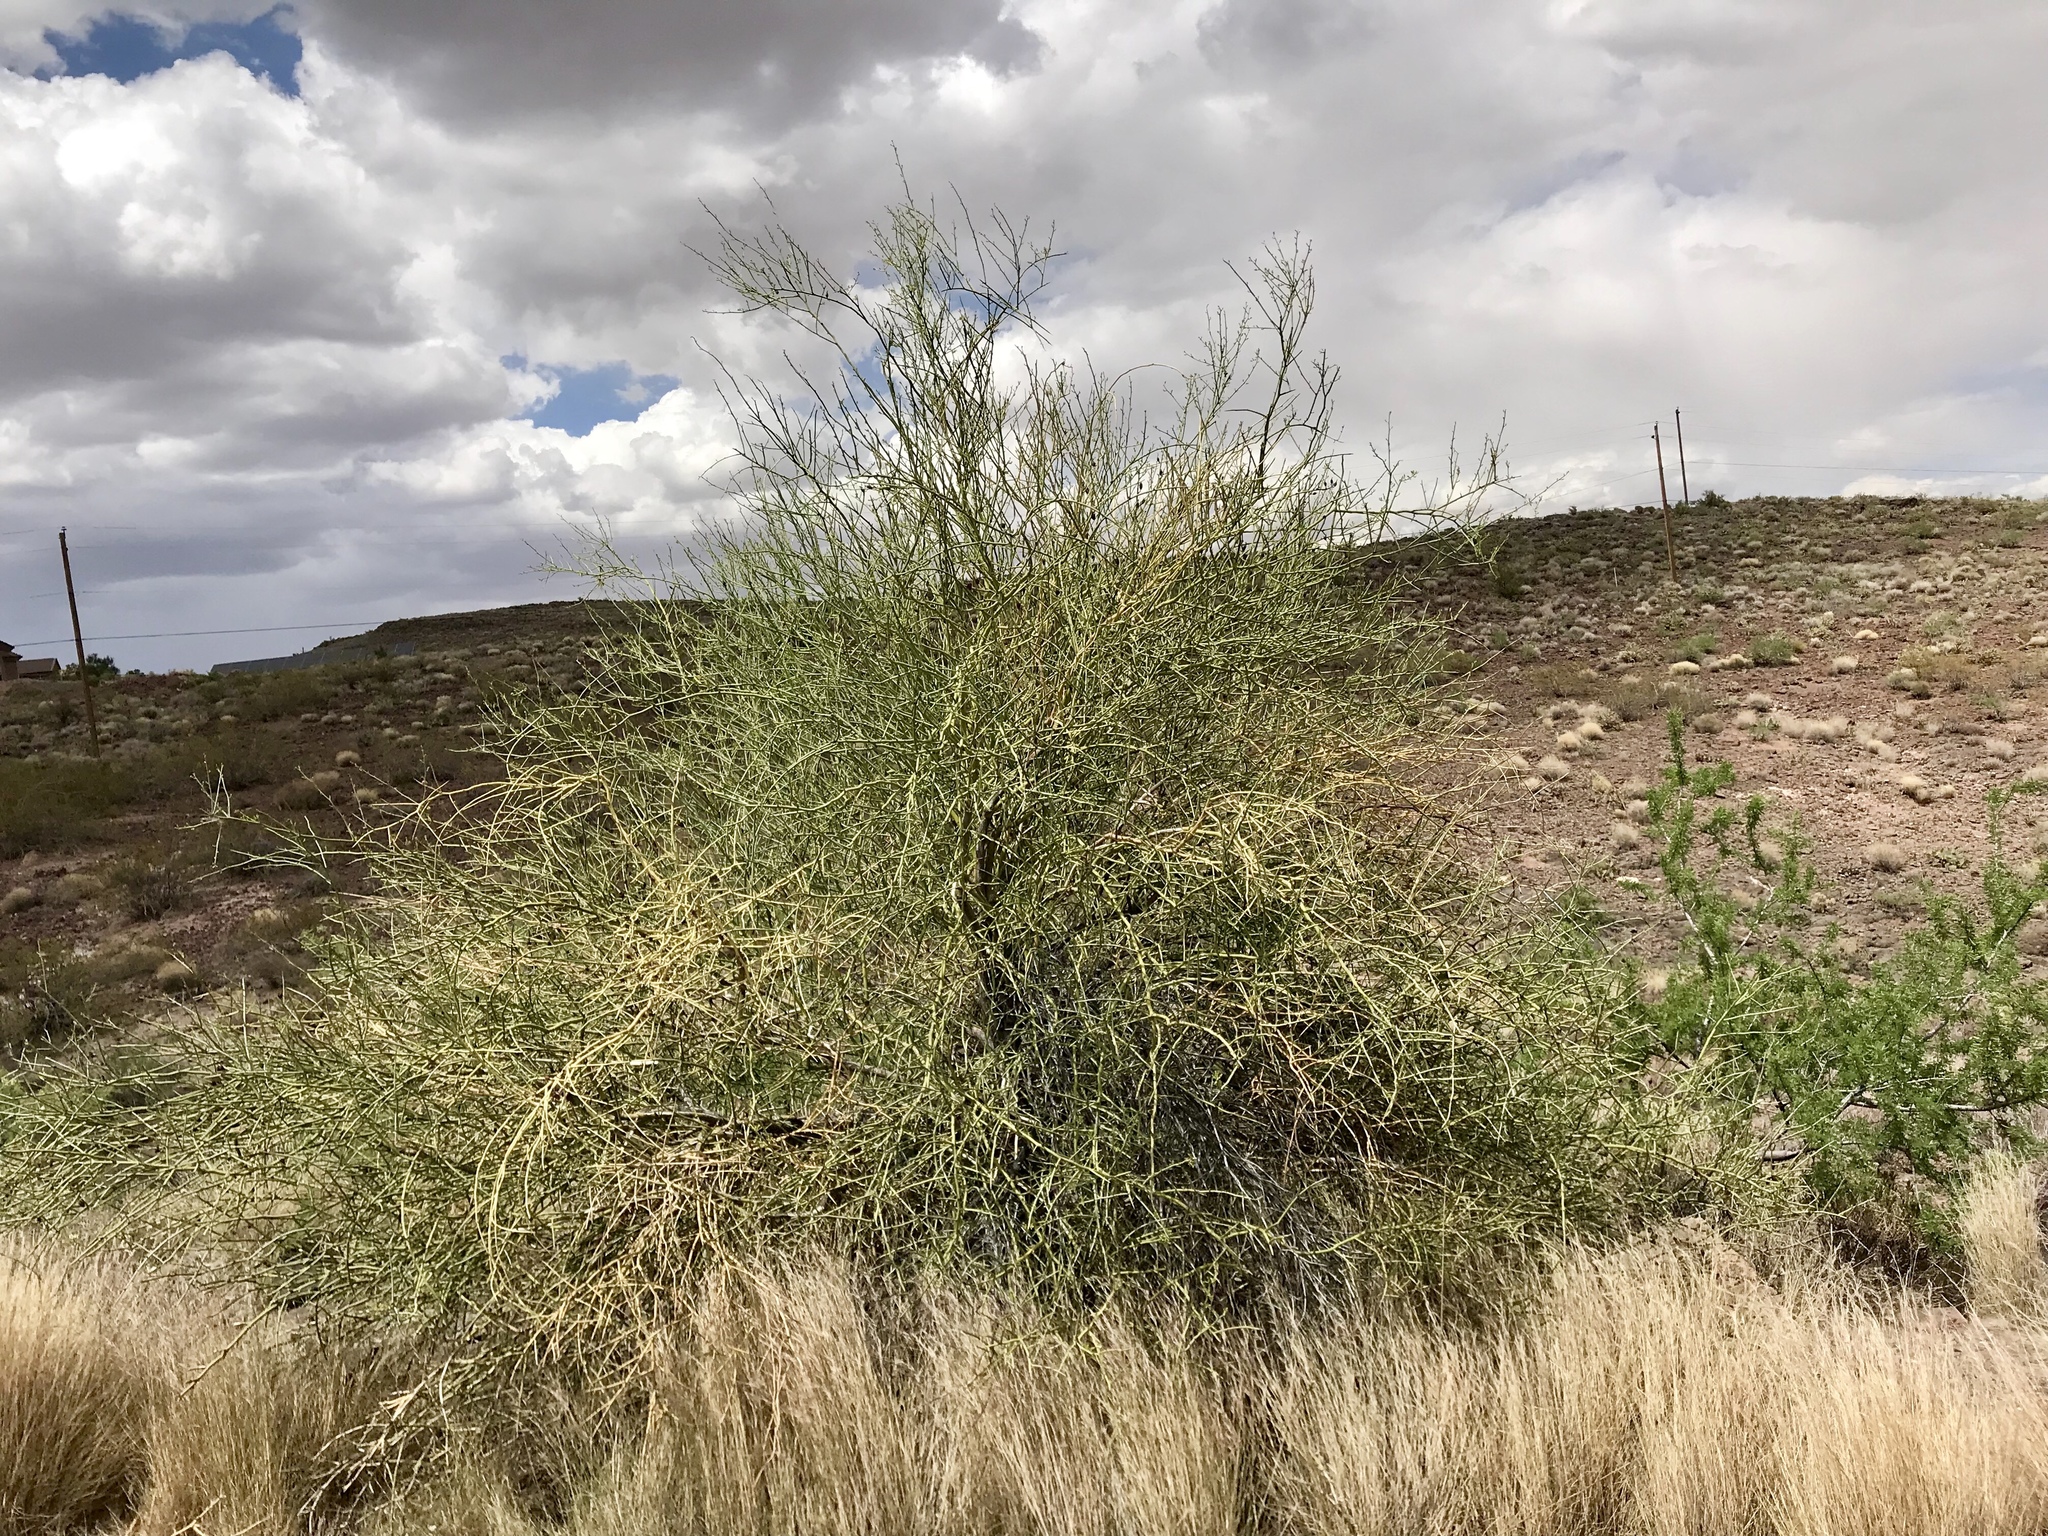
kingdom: Plantae
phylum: Tracheophyta
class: Magnoliopsida
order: Celastrales
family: Celastraceae
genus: Canotia
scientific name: Canotia holacantha
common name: Crucifixion thorns
